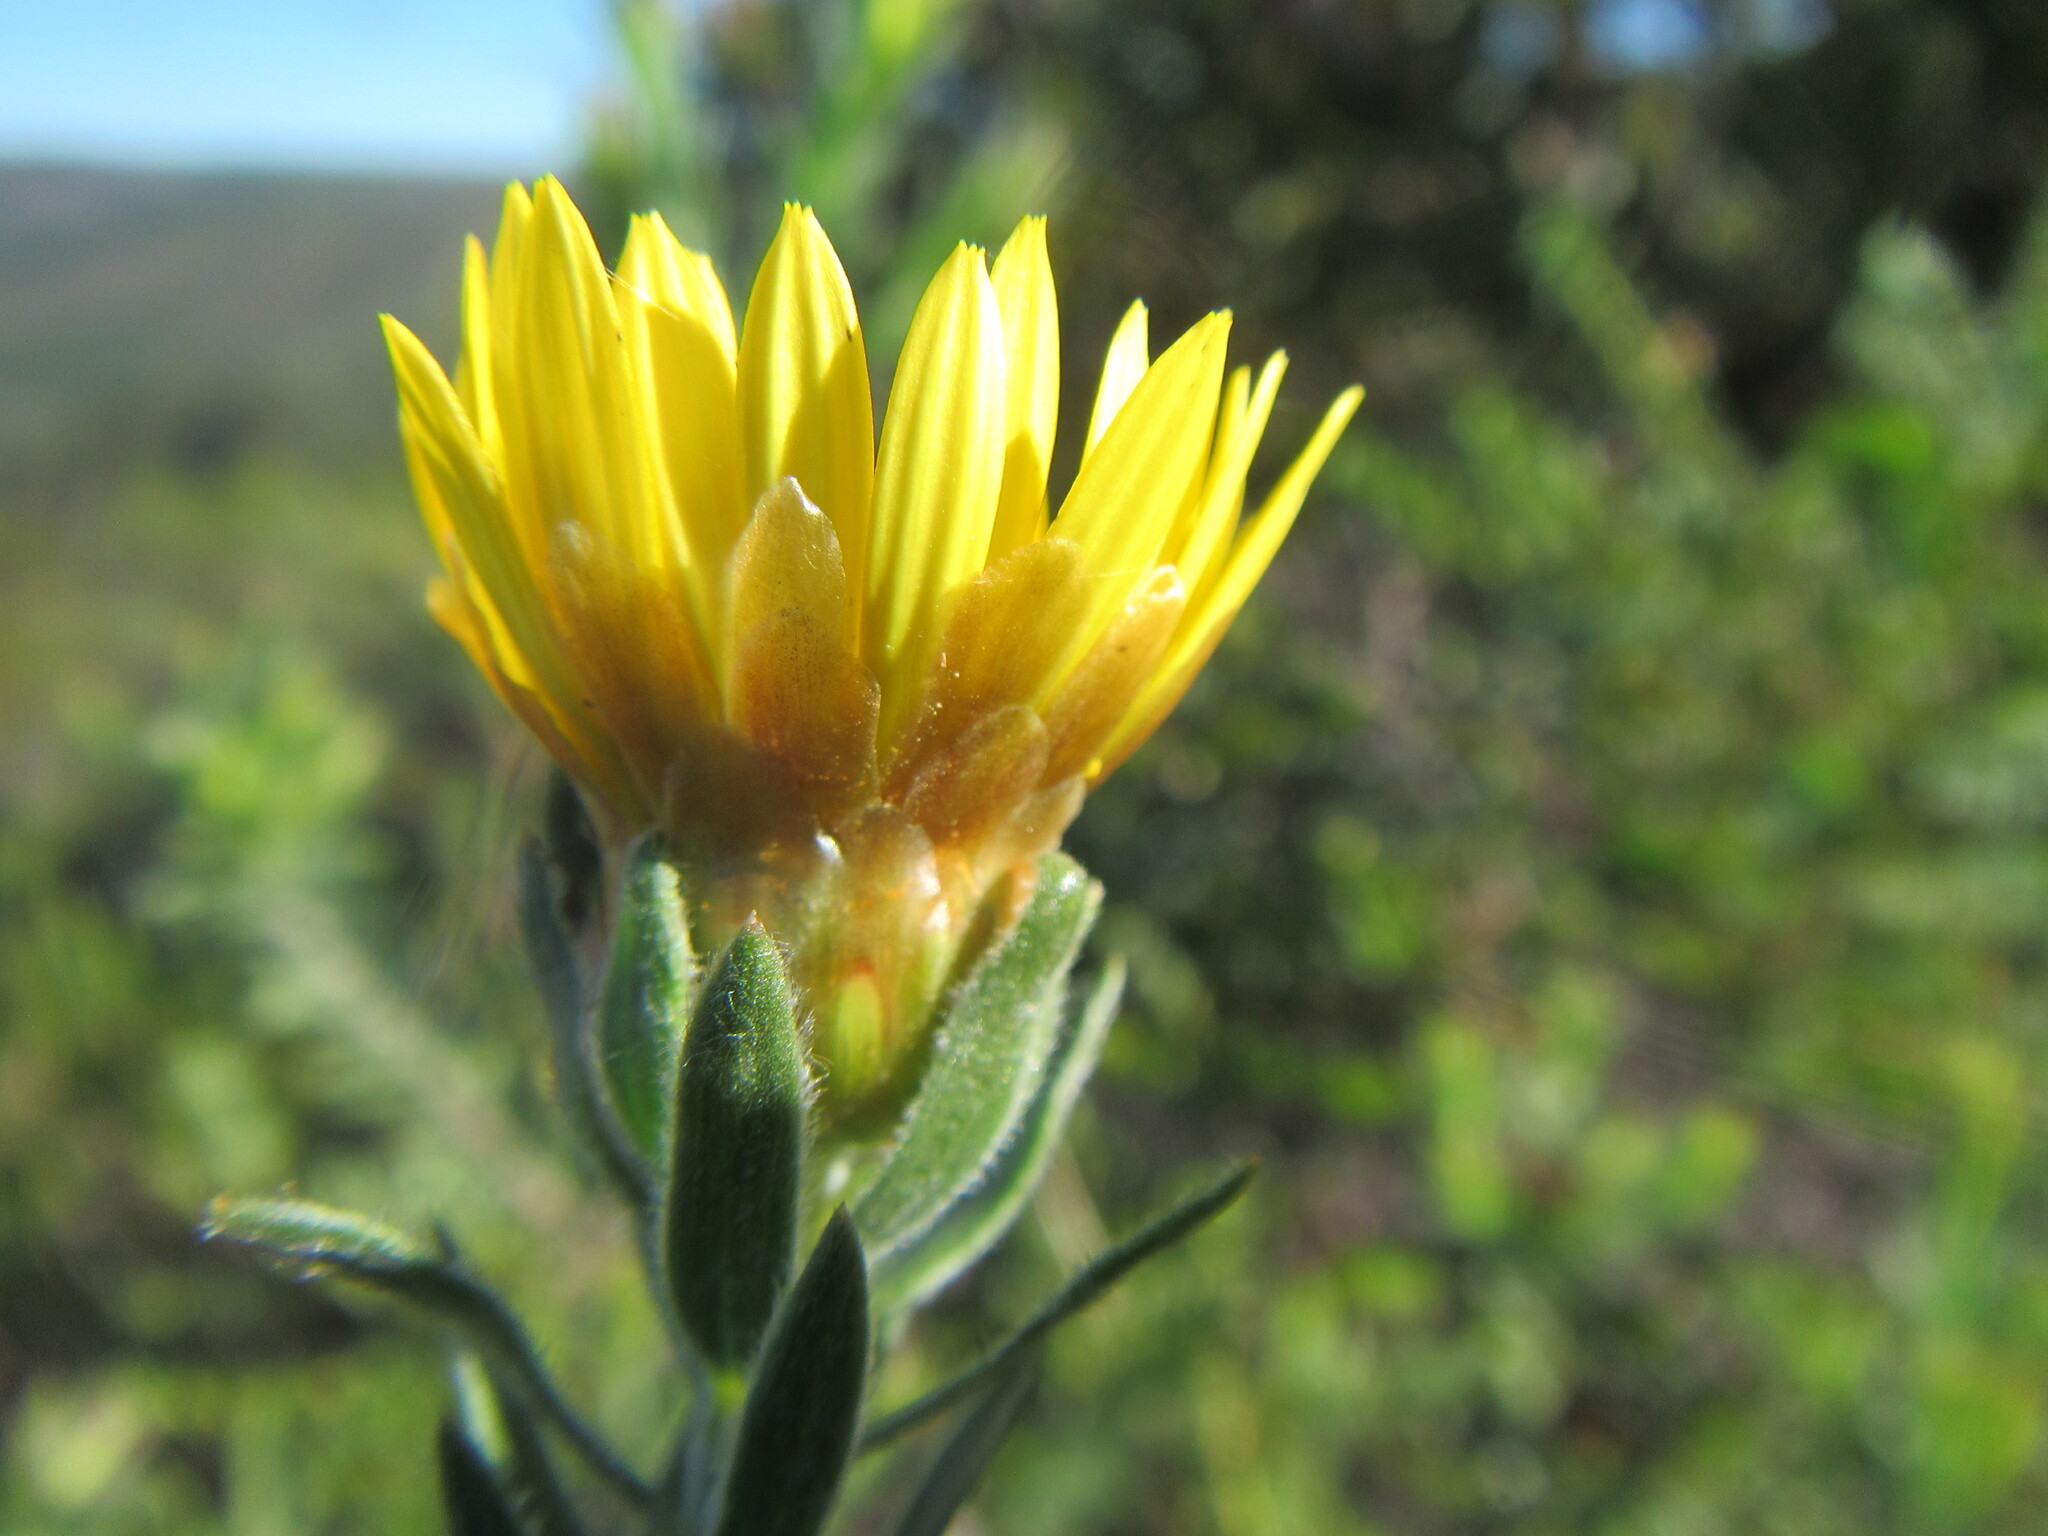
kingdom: Plantae
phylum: Tracheophyta
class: Magnoliopsida
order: Asterales
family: Asteraceae
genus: Oedera
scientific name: Oedera calycina
